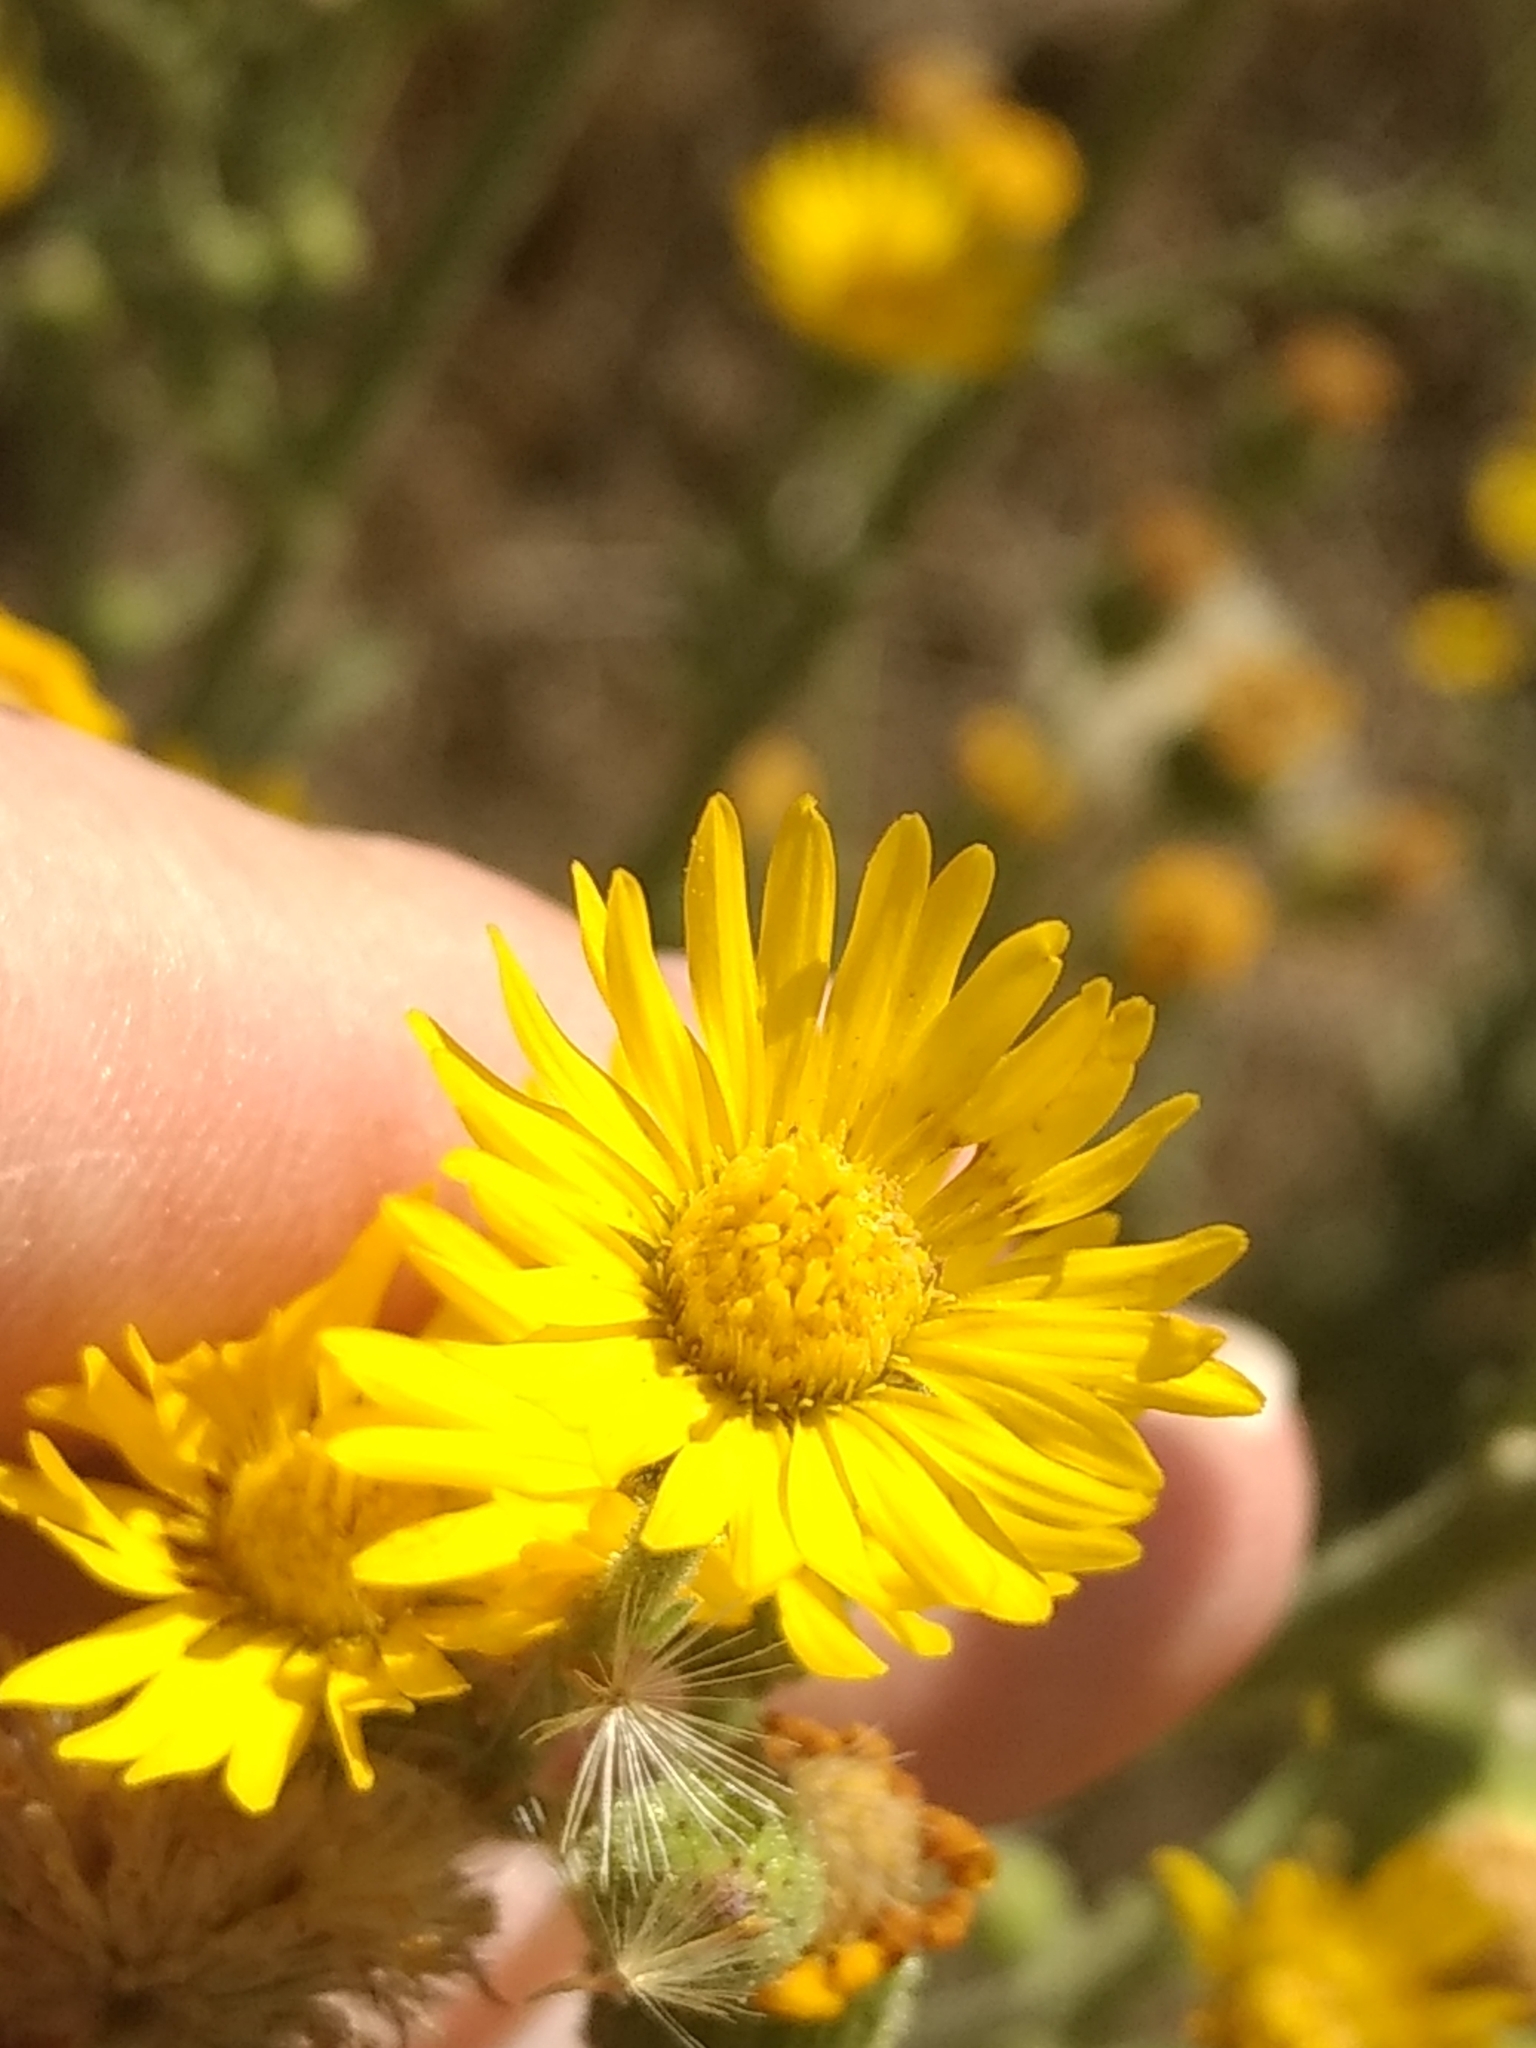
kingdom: Plantae
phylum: Tracheophyta
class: Magnoliopsida
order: Asterales
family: Asteraceae
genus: Heterotheca
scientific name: Heterotheca grandiflora
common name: Telegraphweed
